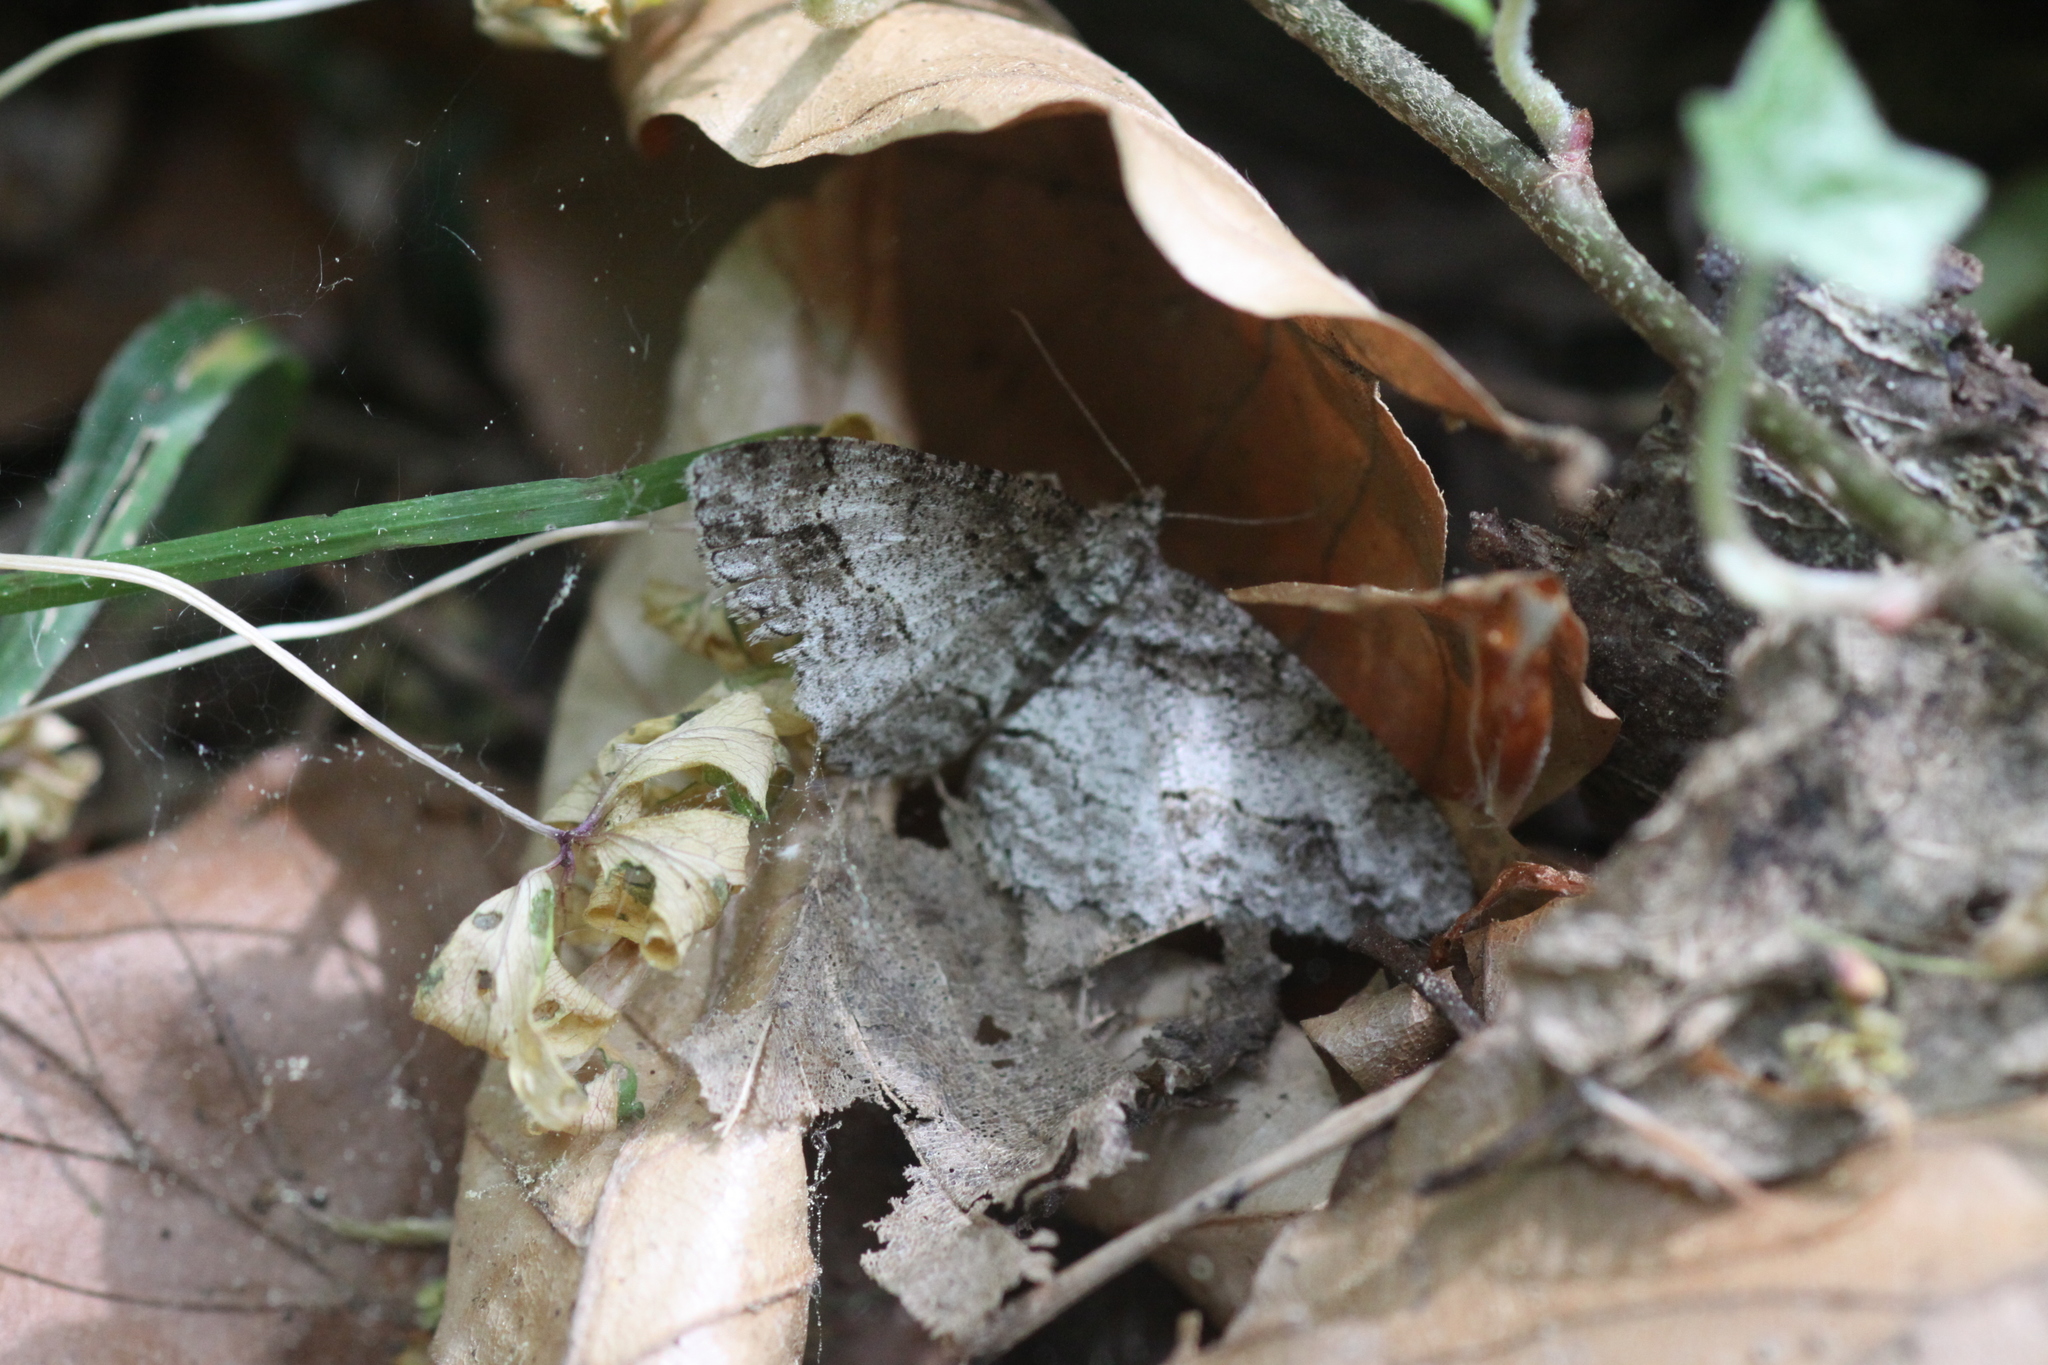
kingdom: Animalia
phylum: Arthropoda
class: Insecta
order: Lepidoptera
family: Geometridae
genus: Paradarisa
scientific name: Paradarisa consonaria
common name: Square spot
